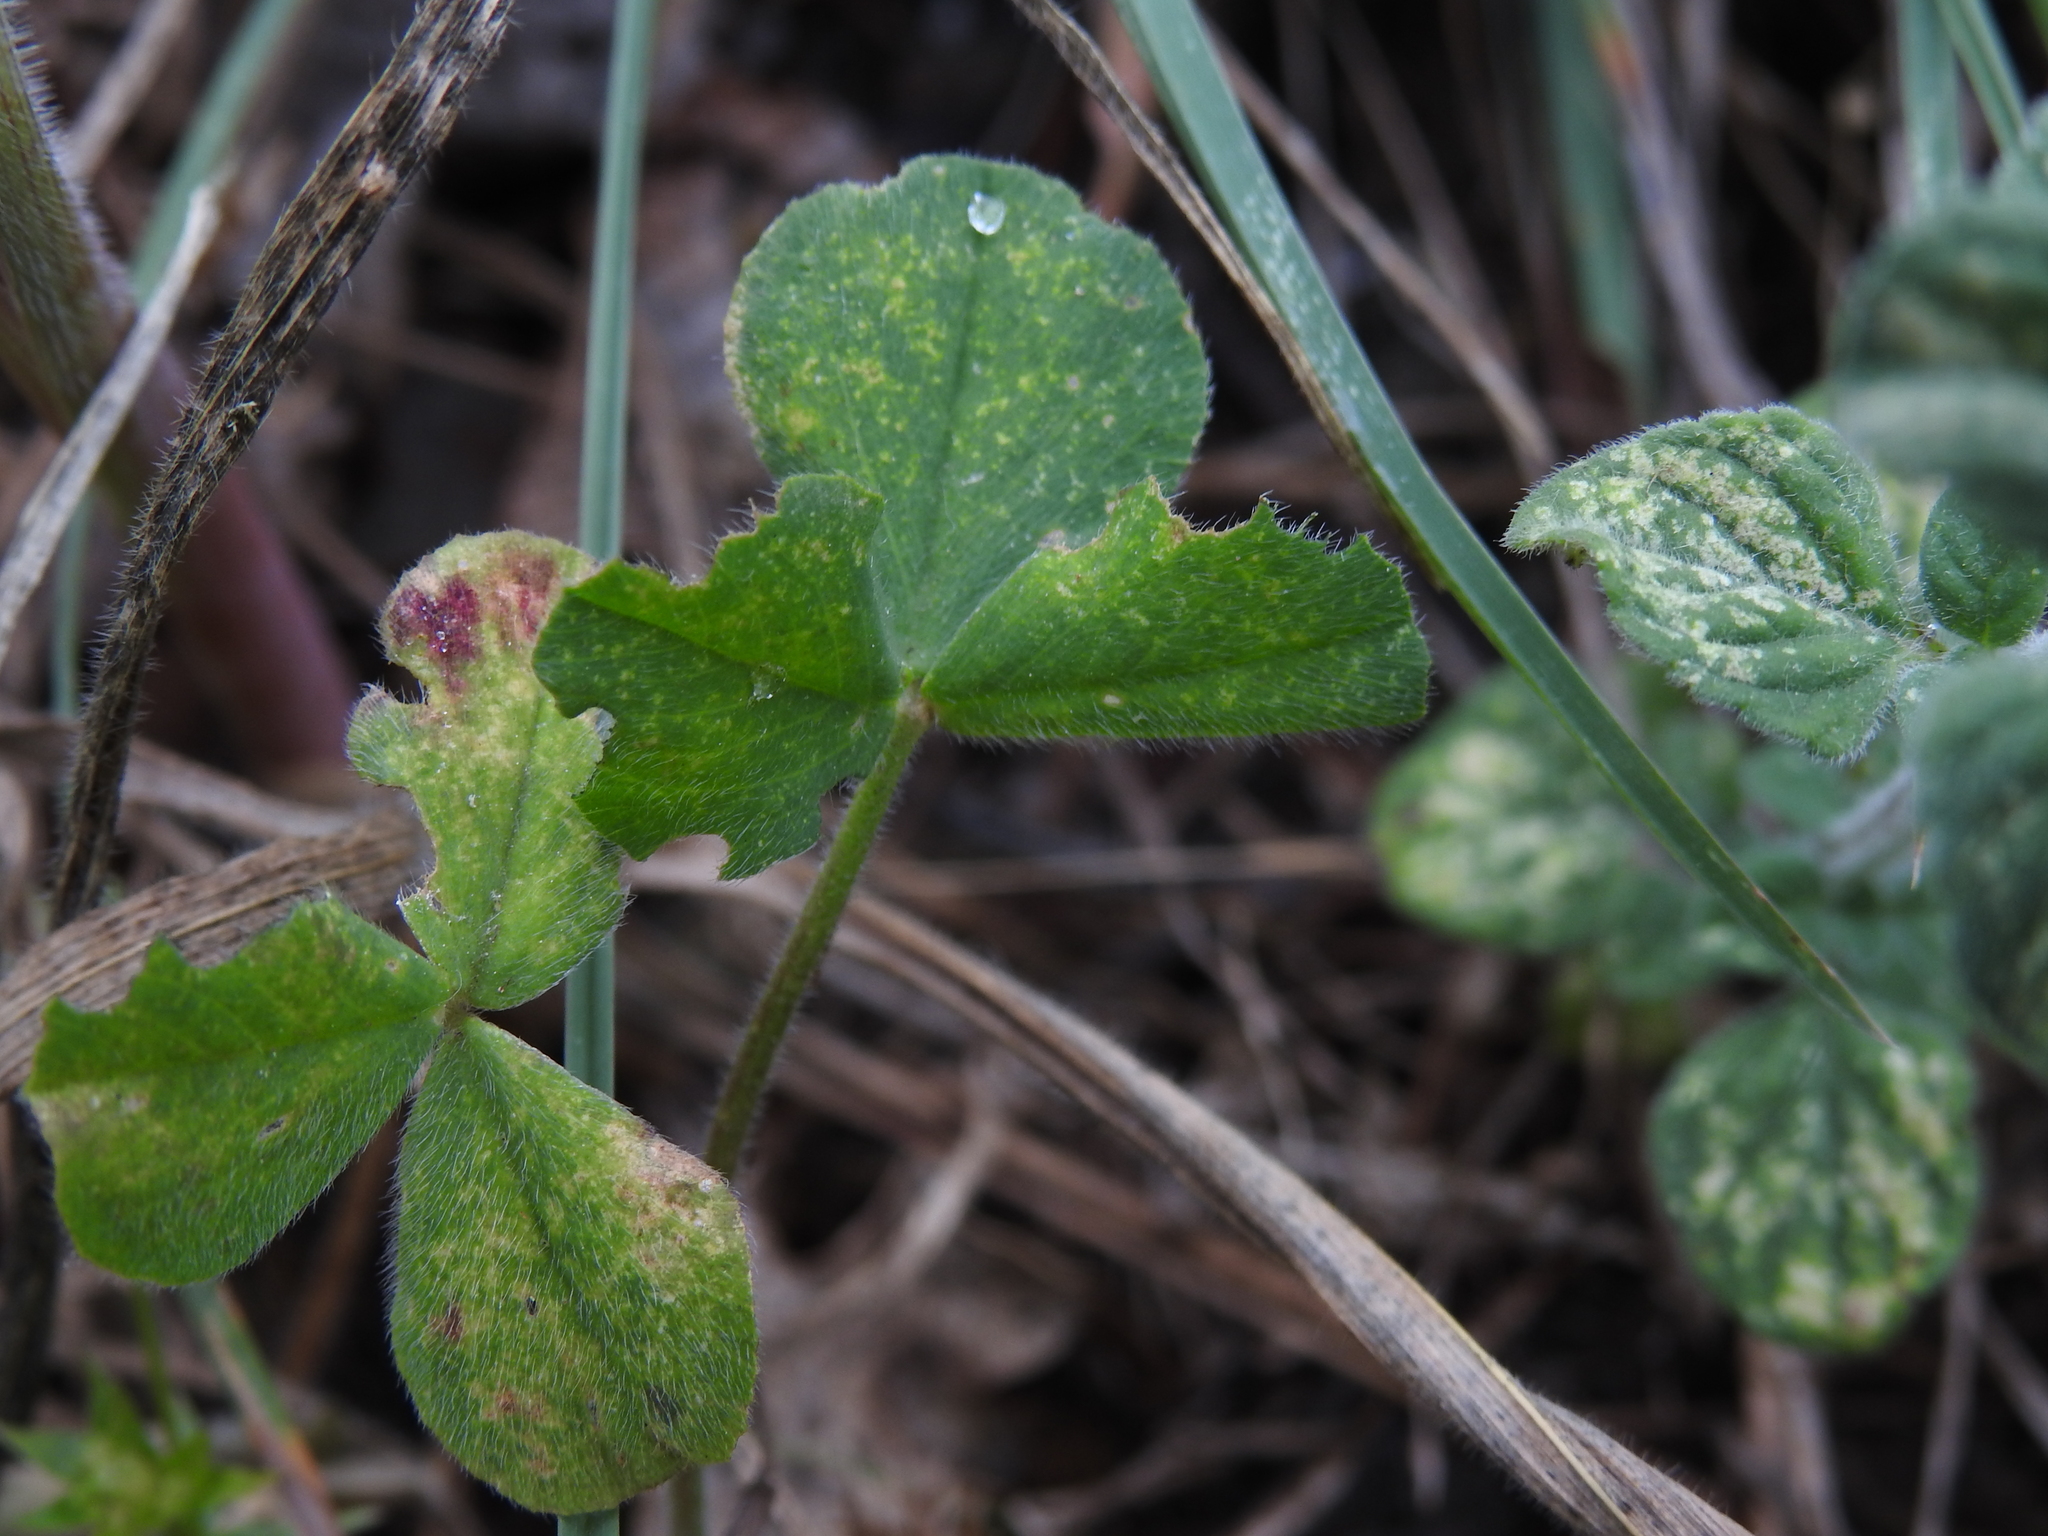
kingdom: Plantae
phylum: Tracheophyta
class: Magnoliopsida
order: Fabales
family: Fabaceae
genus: Trifolium
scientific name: Trifolium incarnatum
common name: Crimson clover
